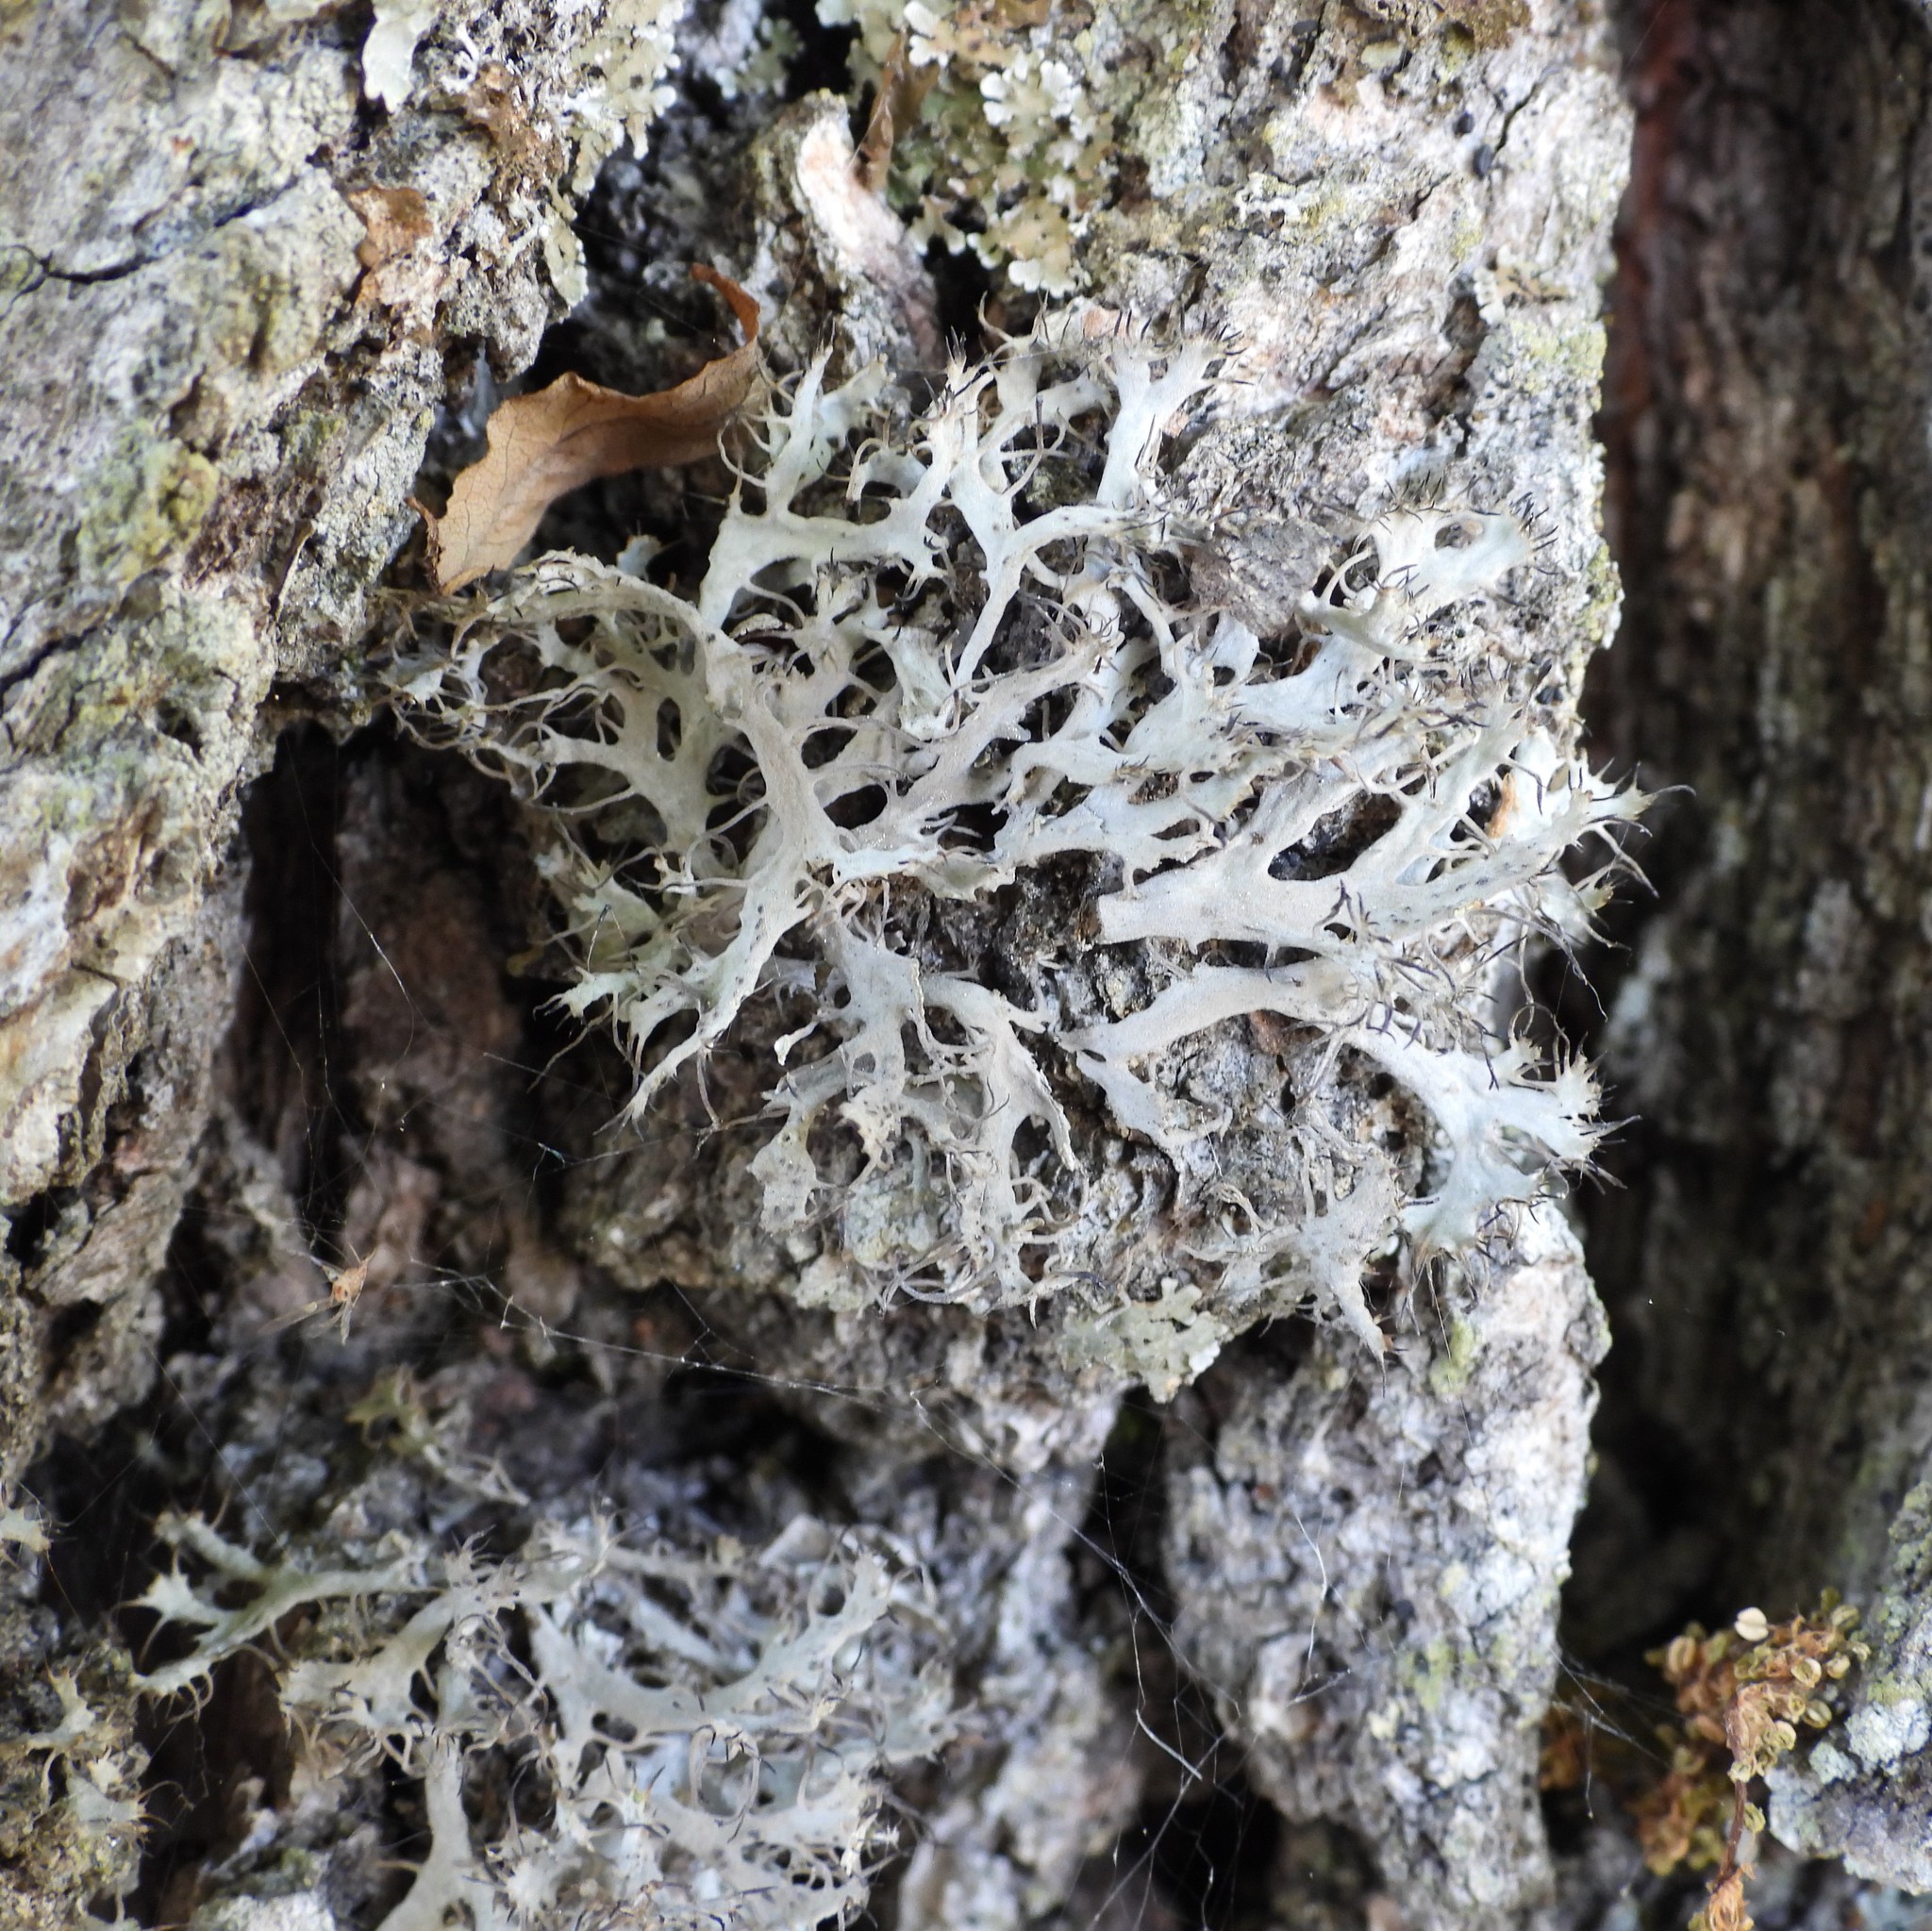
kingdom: Fungi
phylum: Ascomycota
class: Lecanoromycetes
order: Caliciales
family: Physciaceae
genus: Anaptychia
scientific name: Anaptychia ciliaris
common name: Great ciliated lichen
